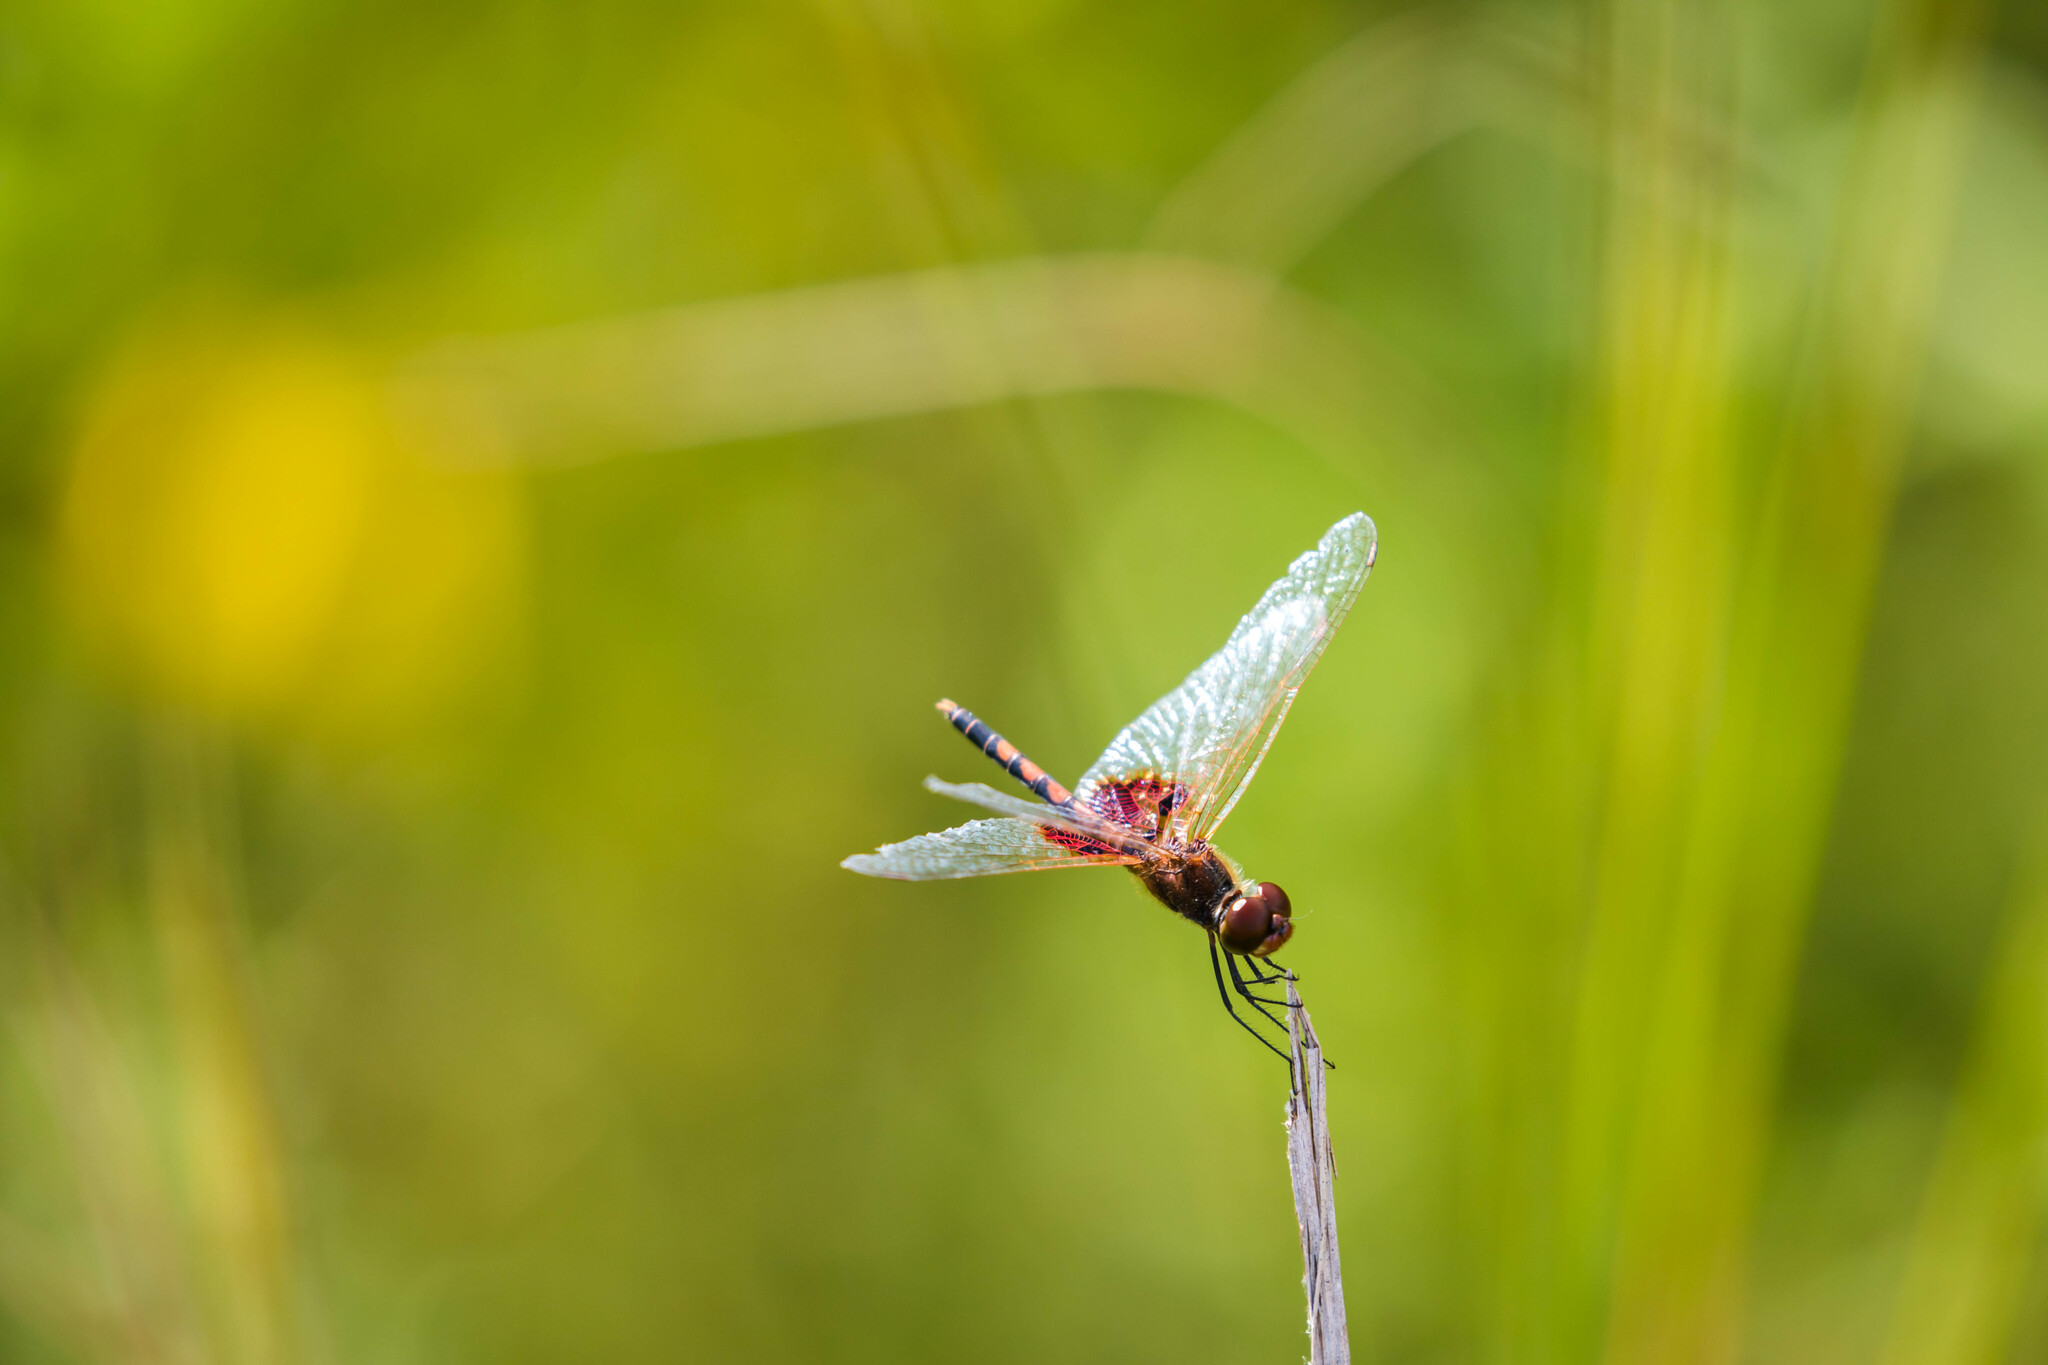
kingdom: Animalia
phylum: Arthropoda
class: Insecta
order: Odonata
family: Libellulidae
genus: Celithemis
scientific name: Celithemis amanda
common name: Amanda's pennant
